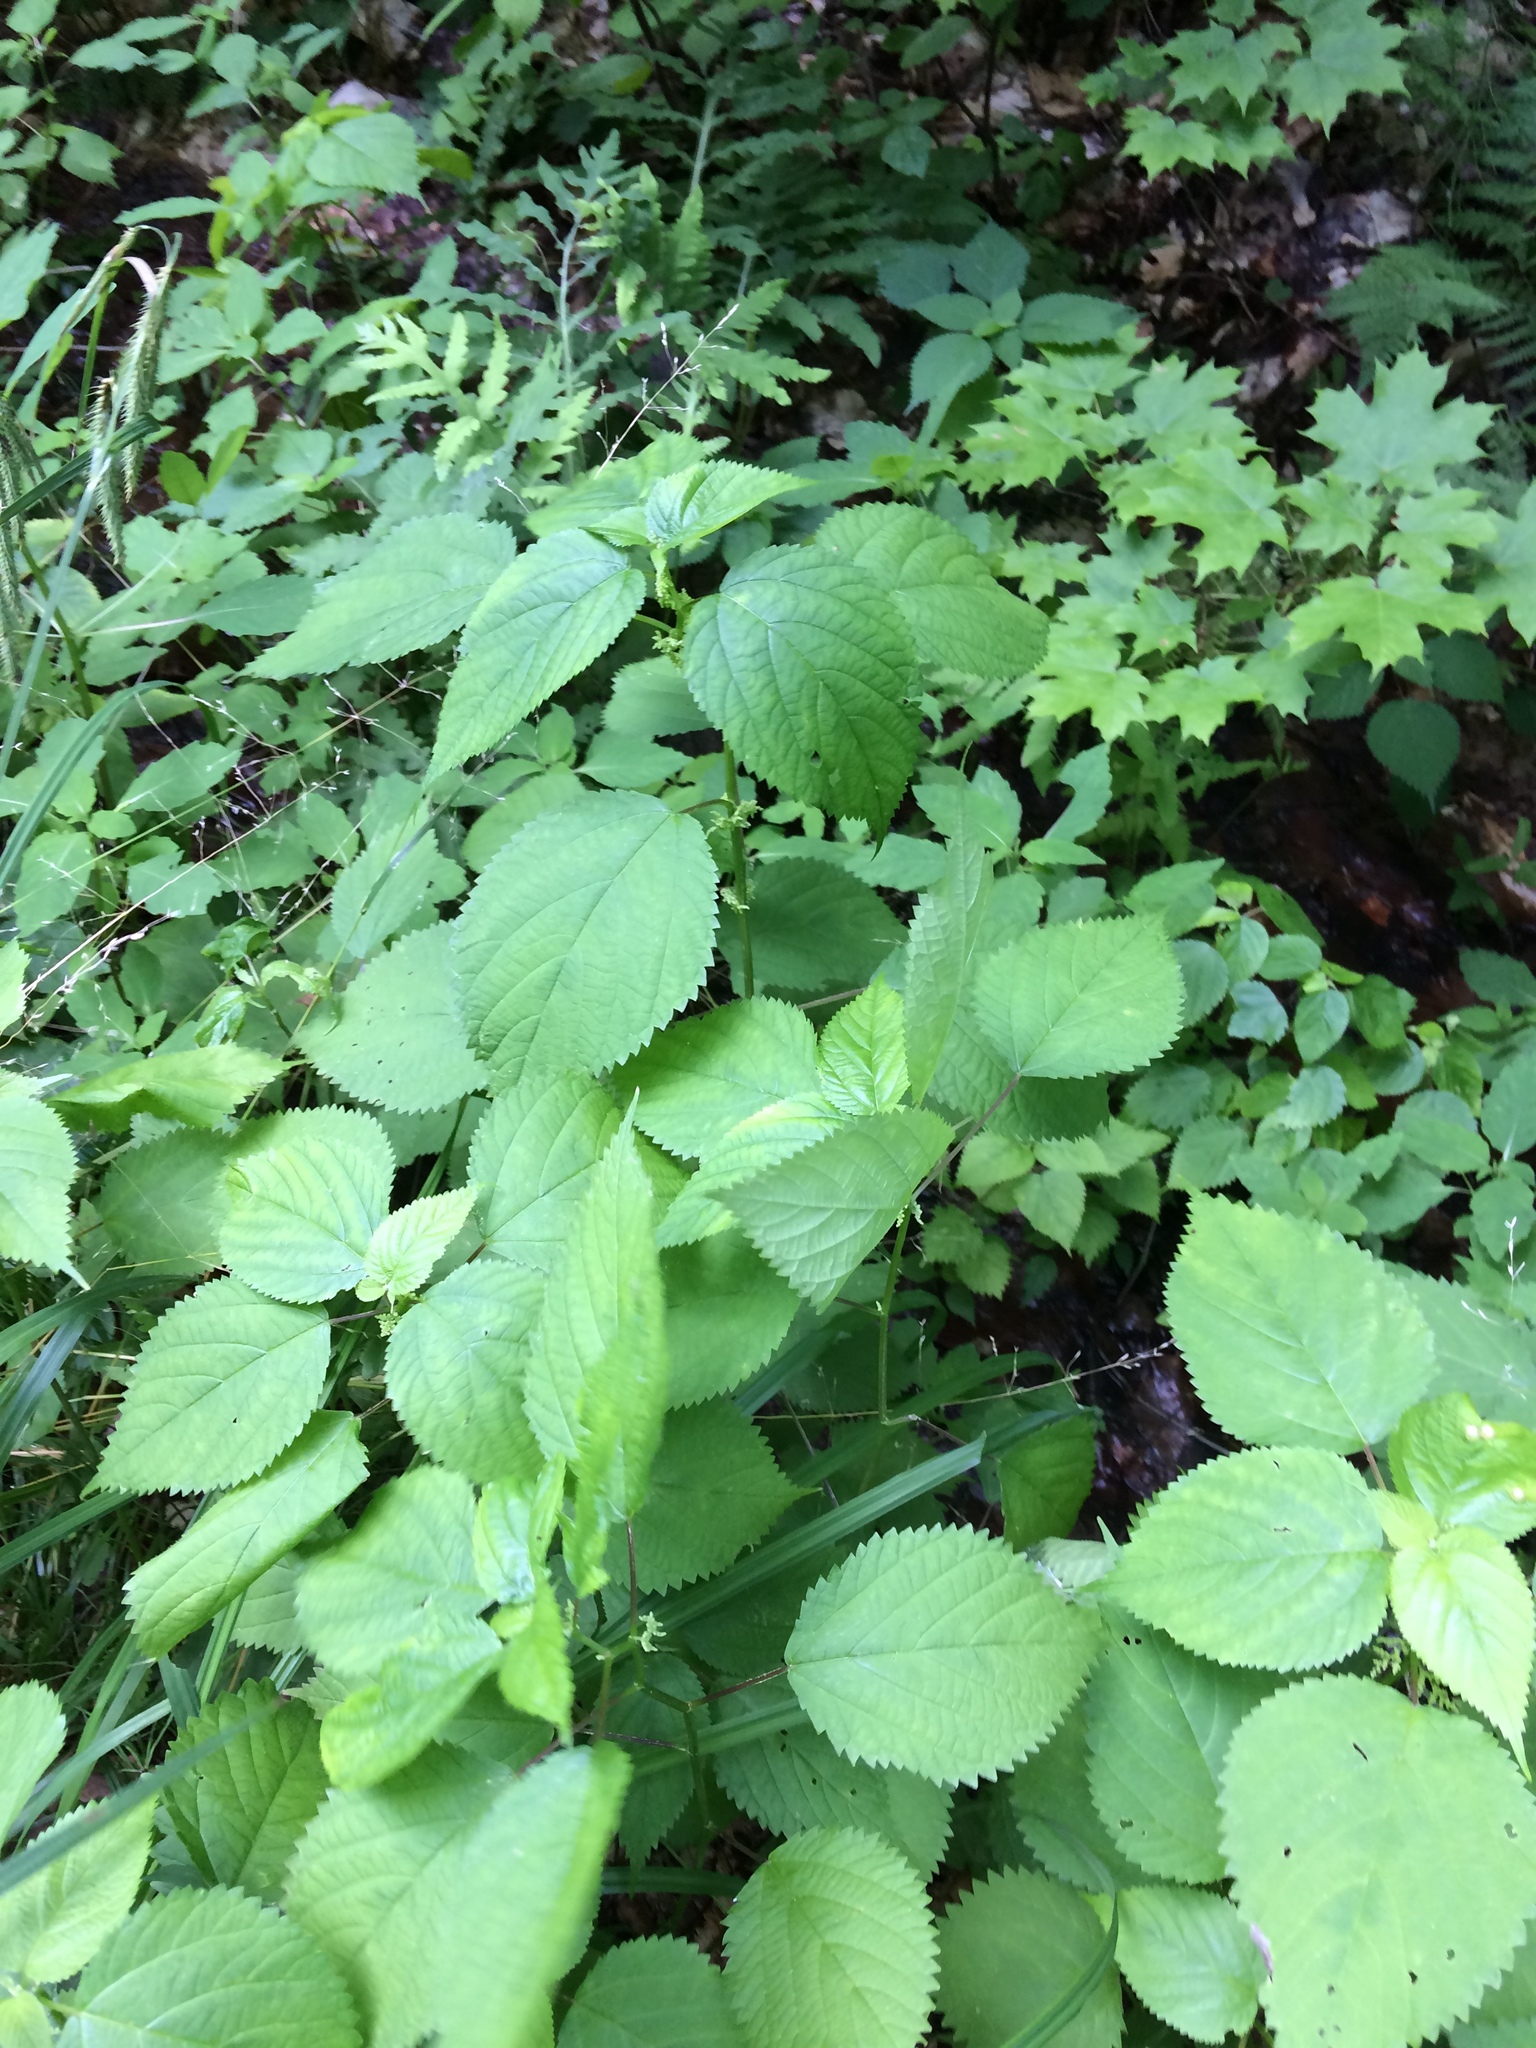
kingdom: Plantae
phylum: Tracheophyta
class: Magnoliopsida
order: Rosales
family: Urticaceae
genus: Laportea
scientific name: Laportea canadensis
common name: Canada nettle
